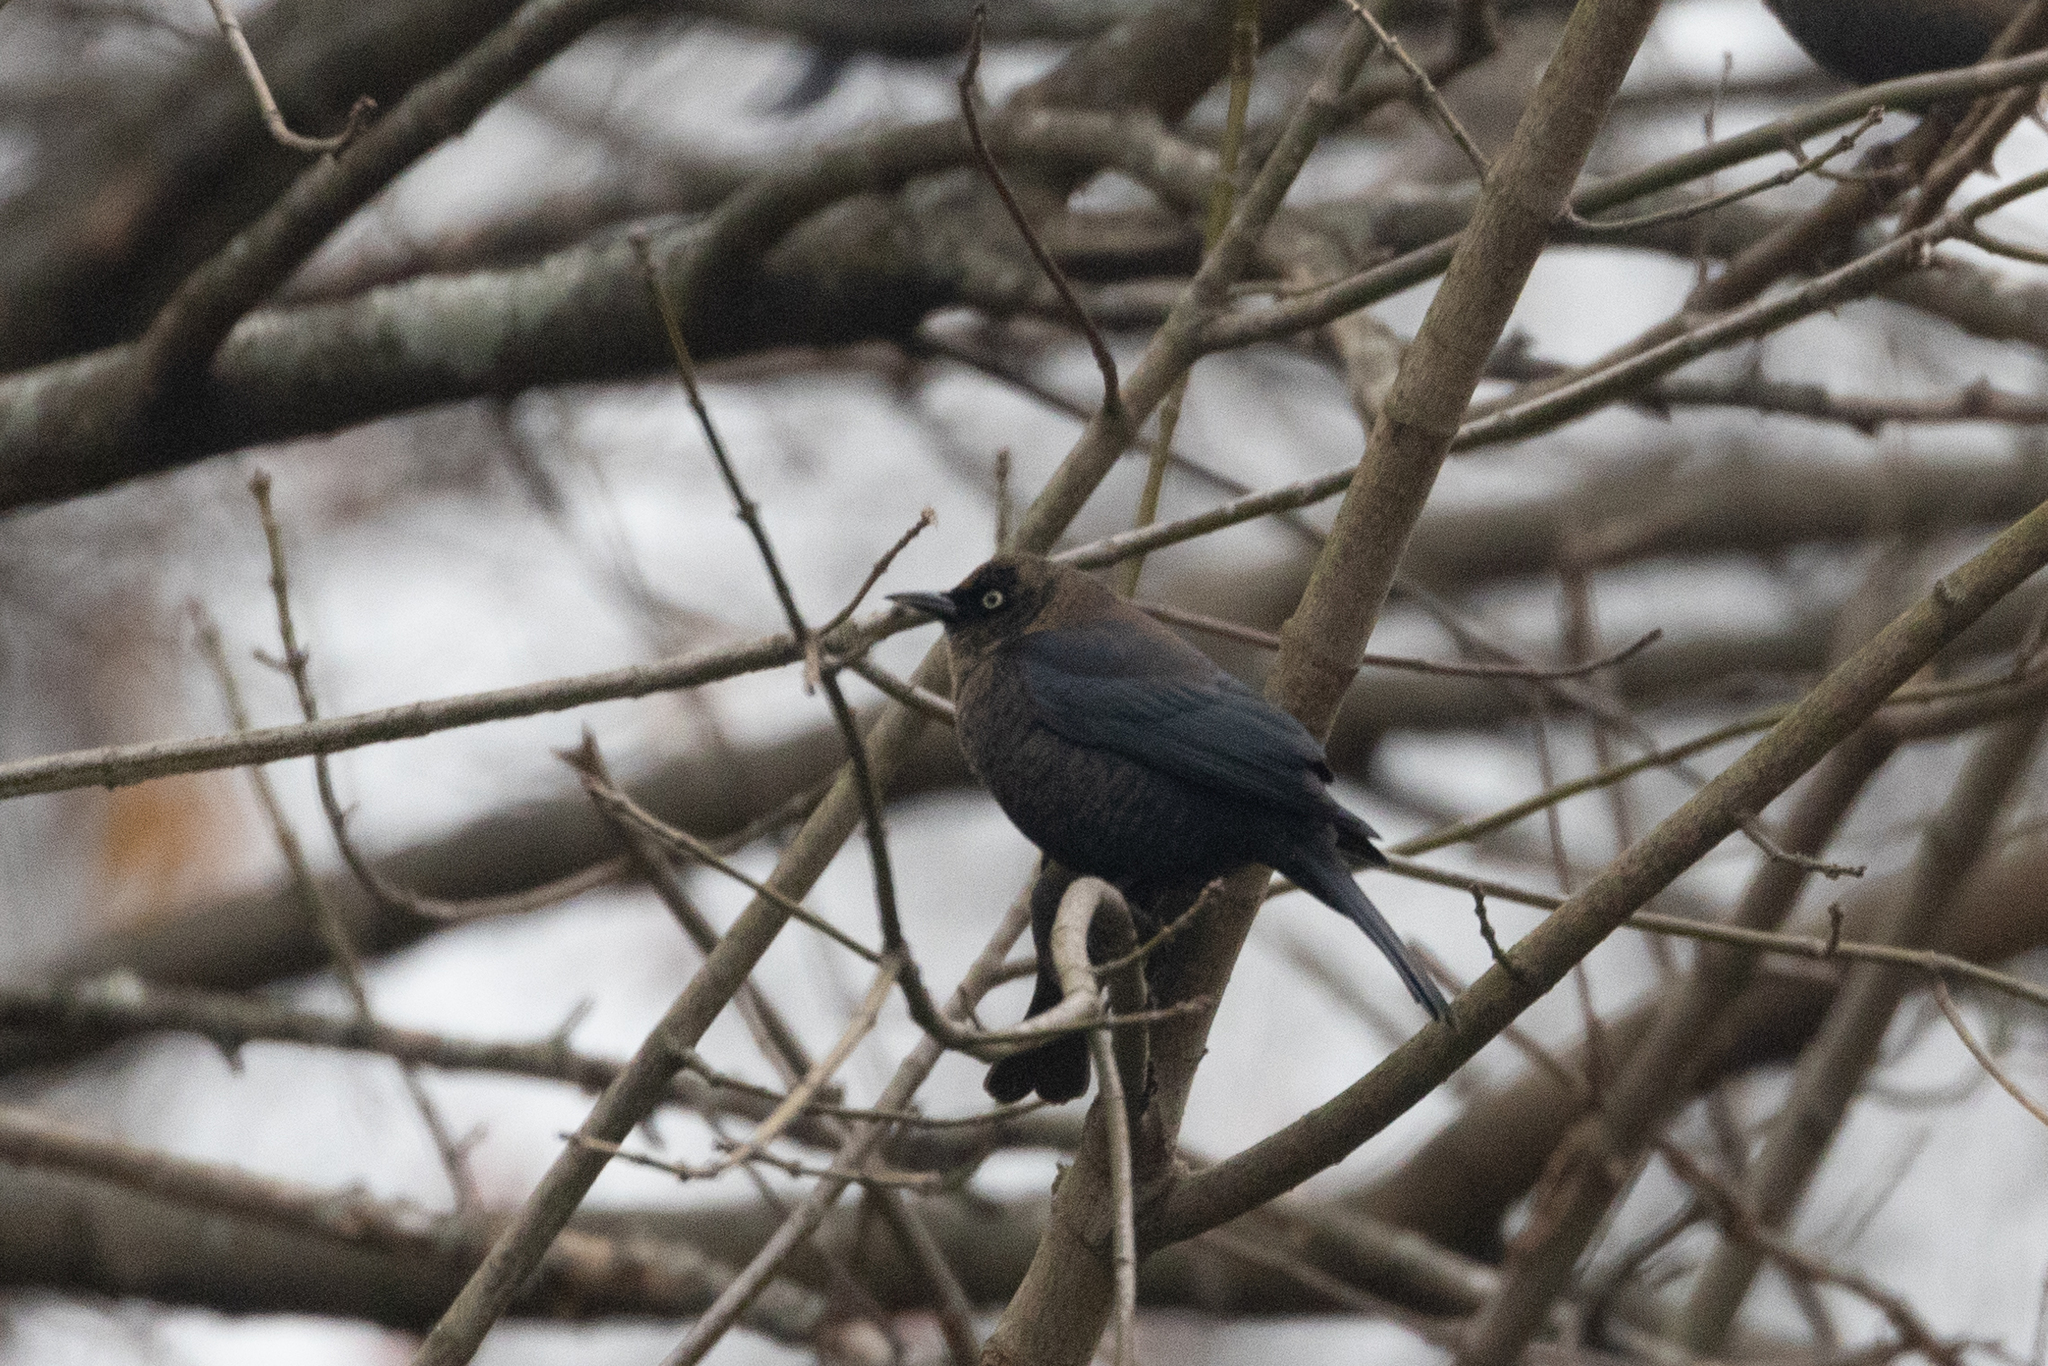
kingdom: Animalia
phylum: Chordata
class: Aves
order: Passeriformes
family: Icteridae
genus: Euphagus
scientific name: Euphagus carolinus
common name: Rusty blackbird
